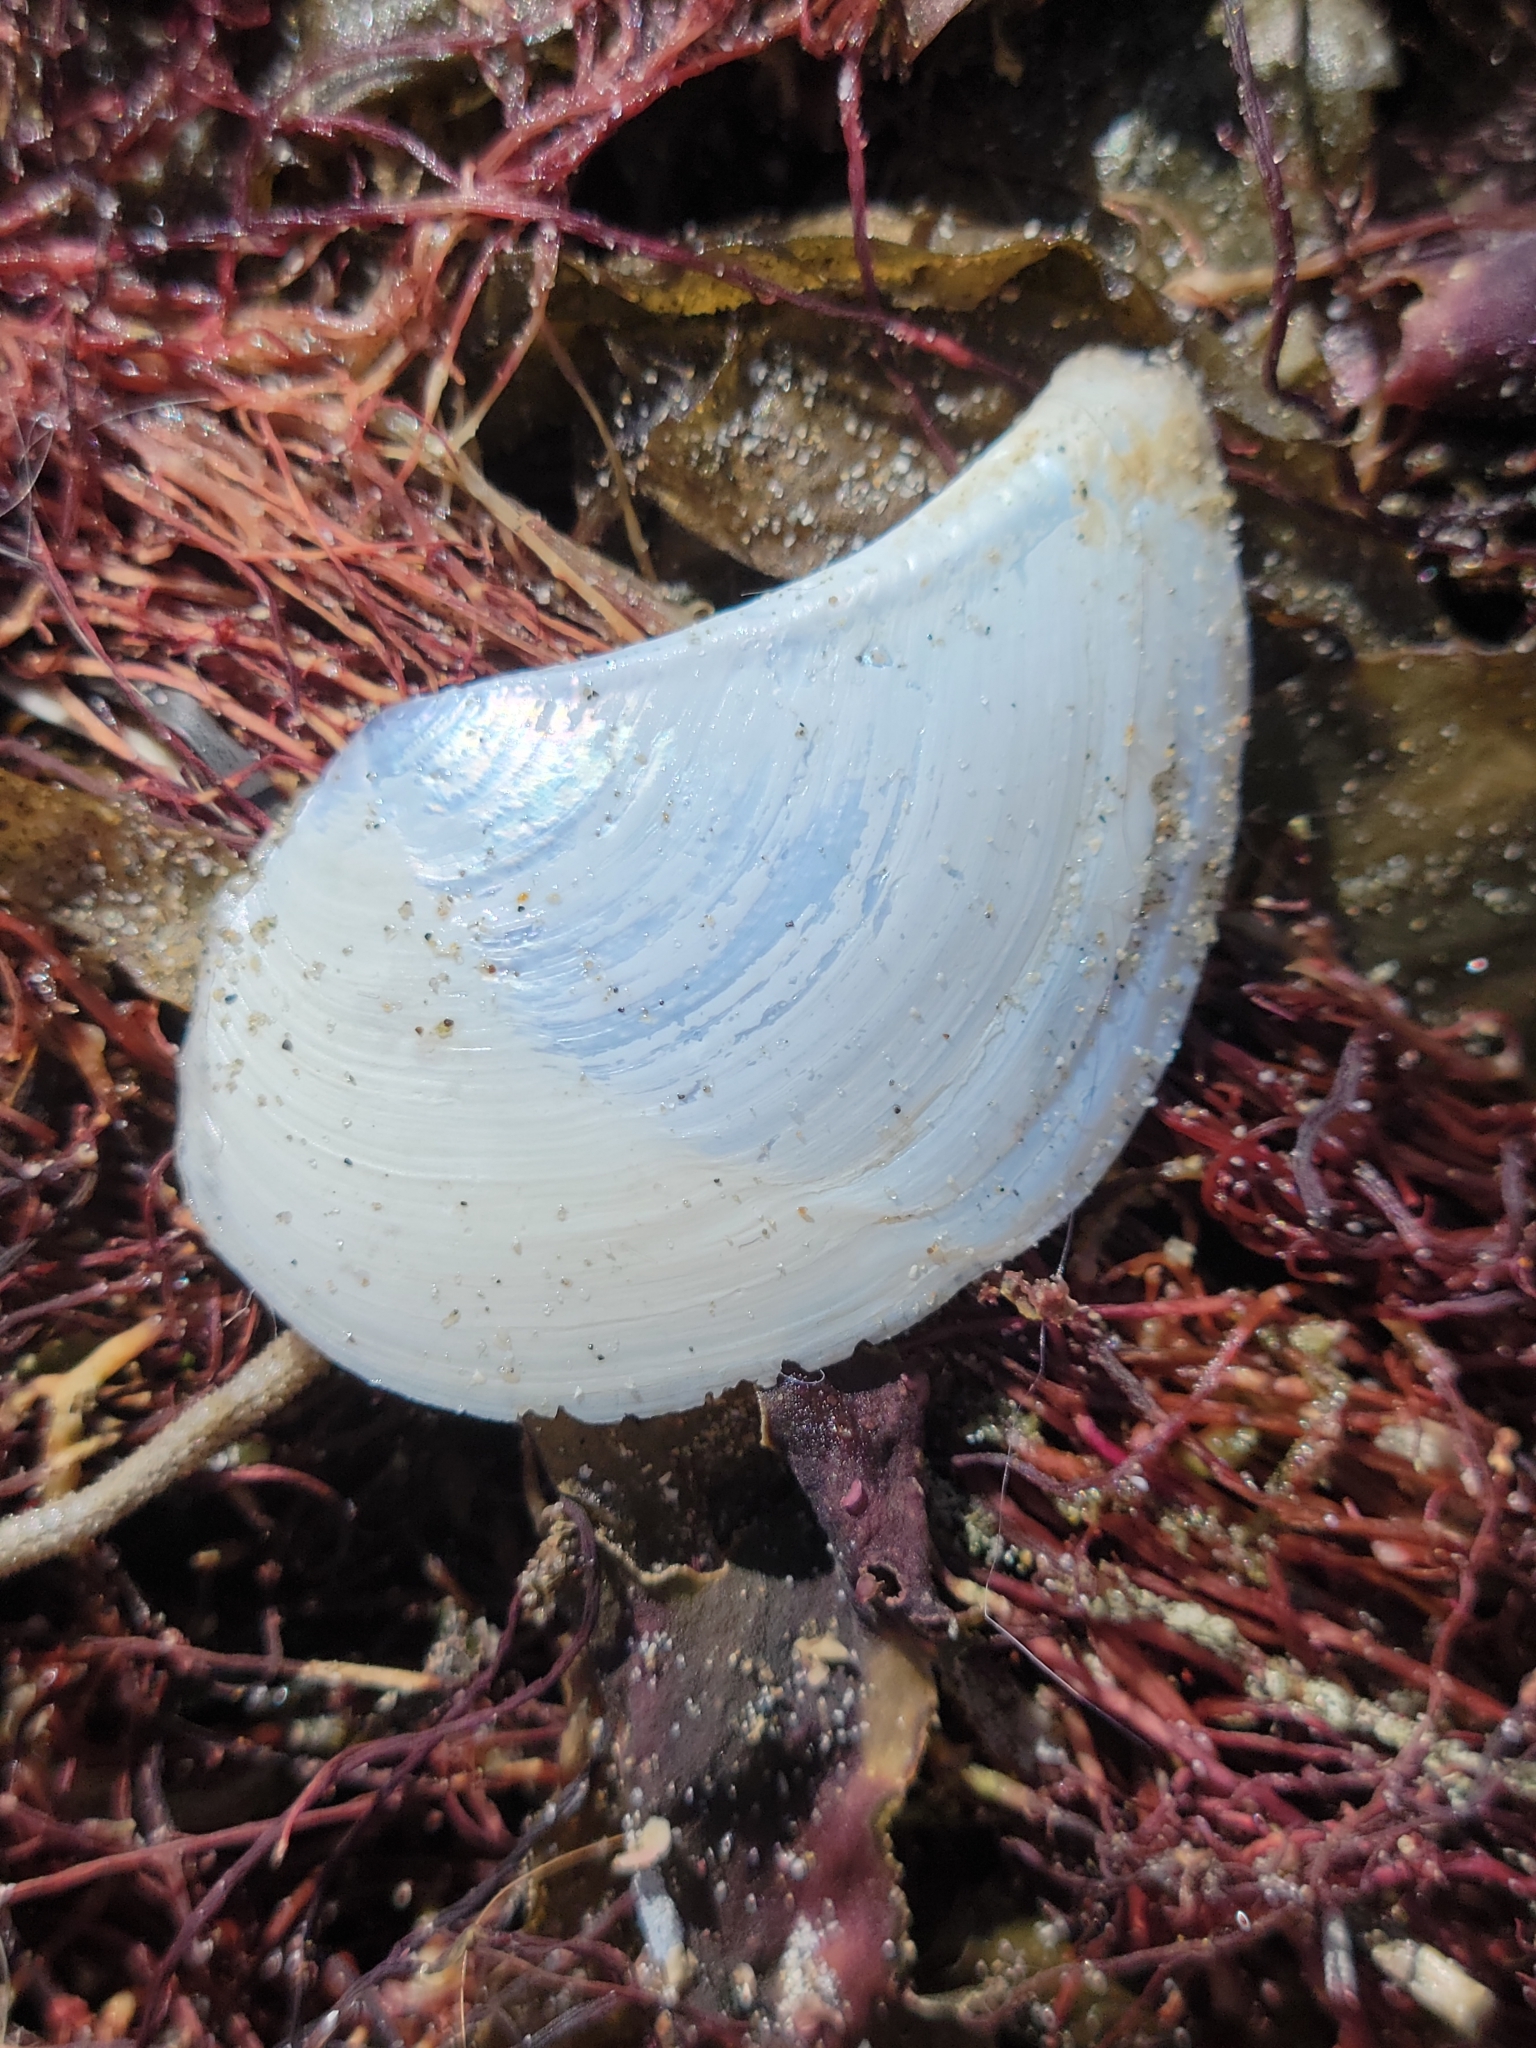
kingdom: Animalia
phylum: Mollusca
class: Bivalvia
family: Pandoridae
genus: Heteroclidus
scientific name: Heteroclidus punctatus
